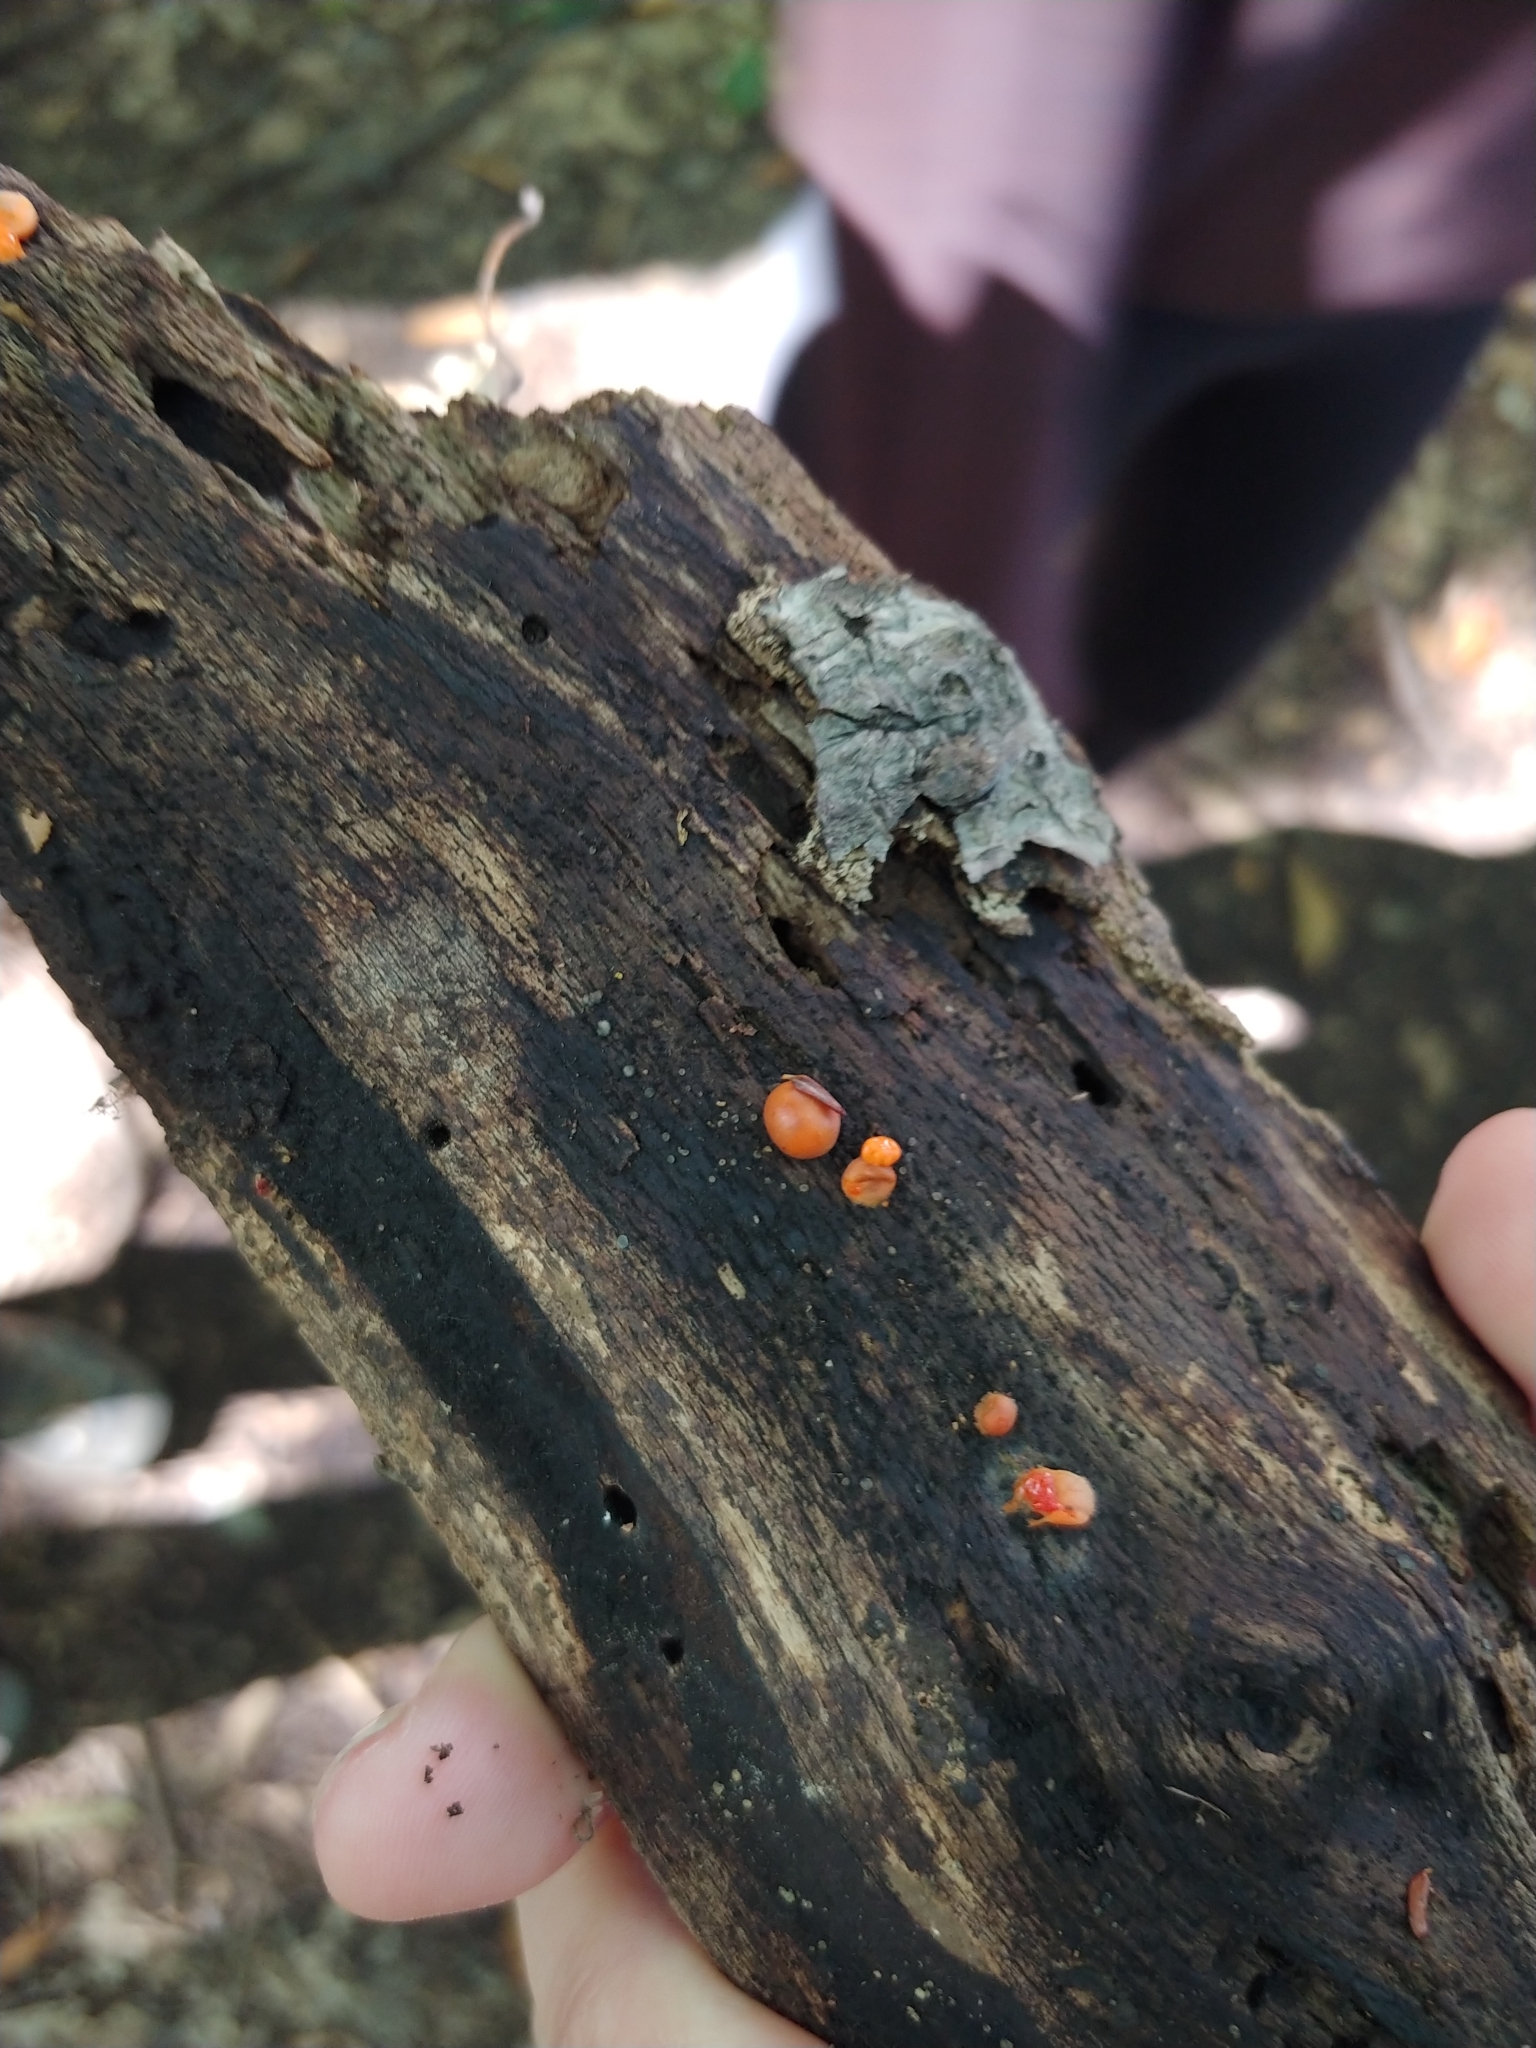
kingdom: Protozoa
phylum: Mycetozoa
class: Myxomycetes
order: Cribrariales
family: Tubiferaceae
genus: Lycogala
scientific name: Lycogala epidendrum
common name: Wolf's milk
